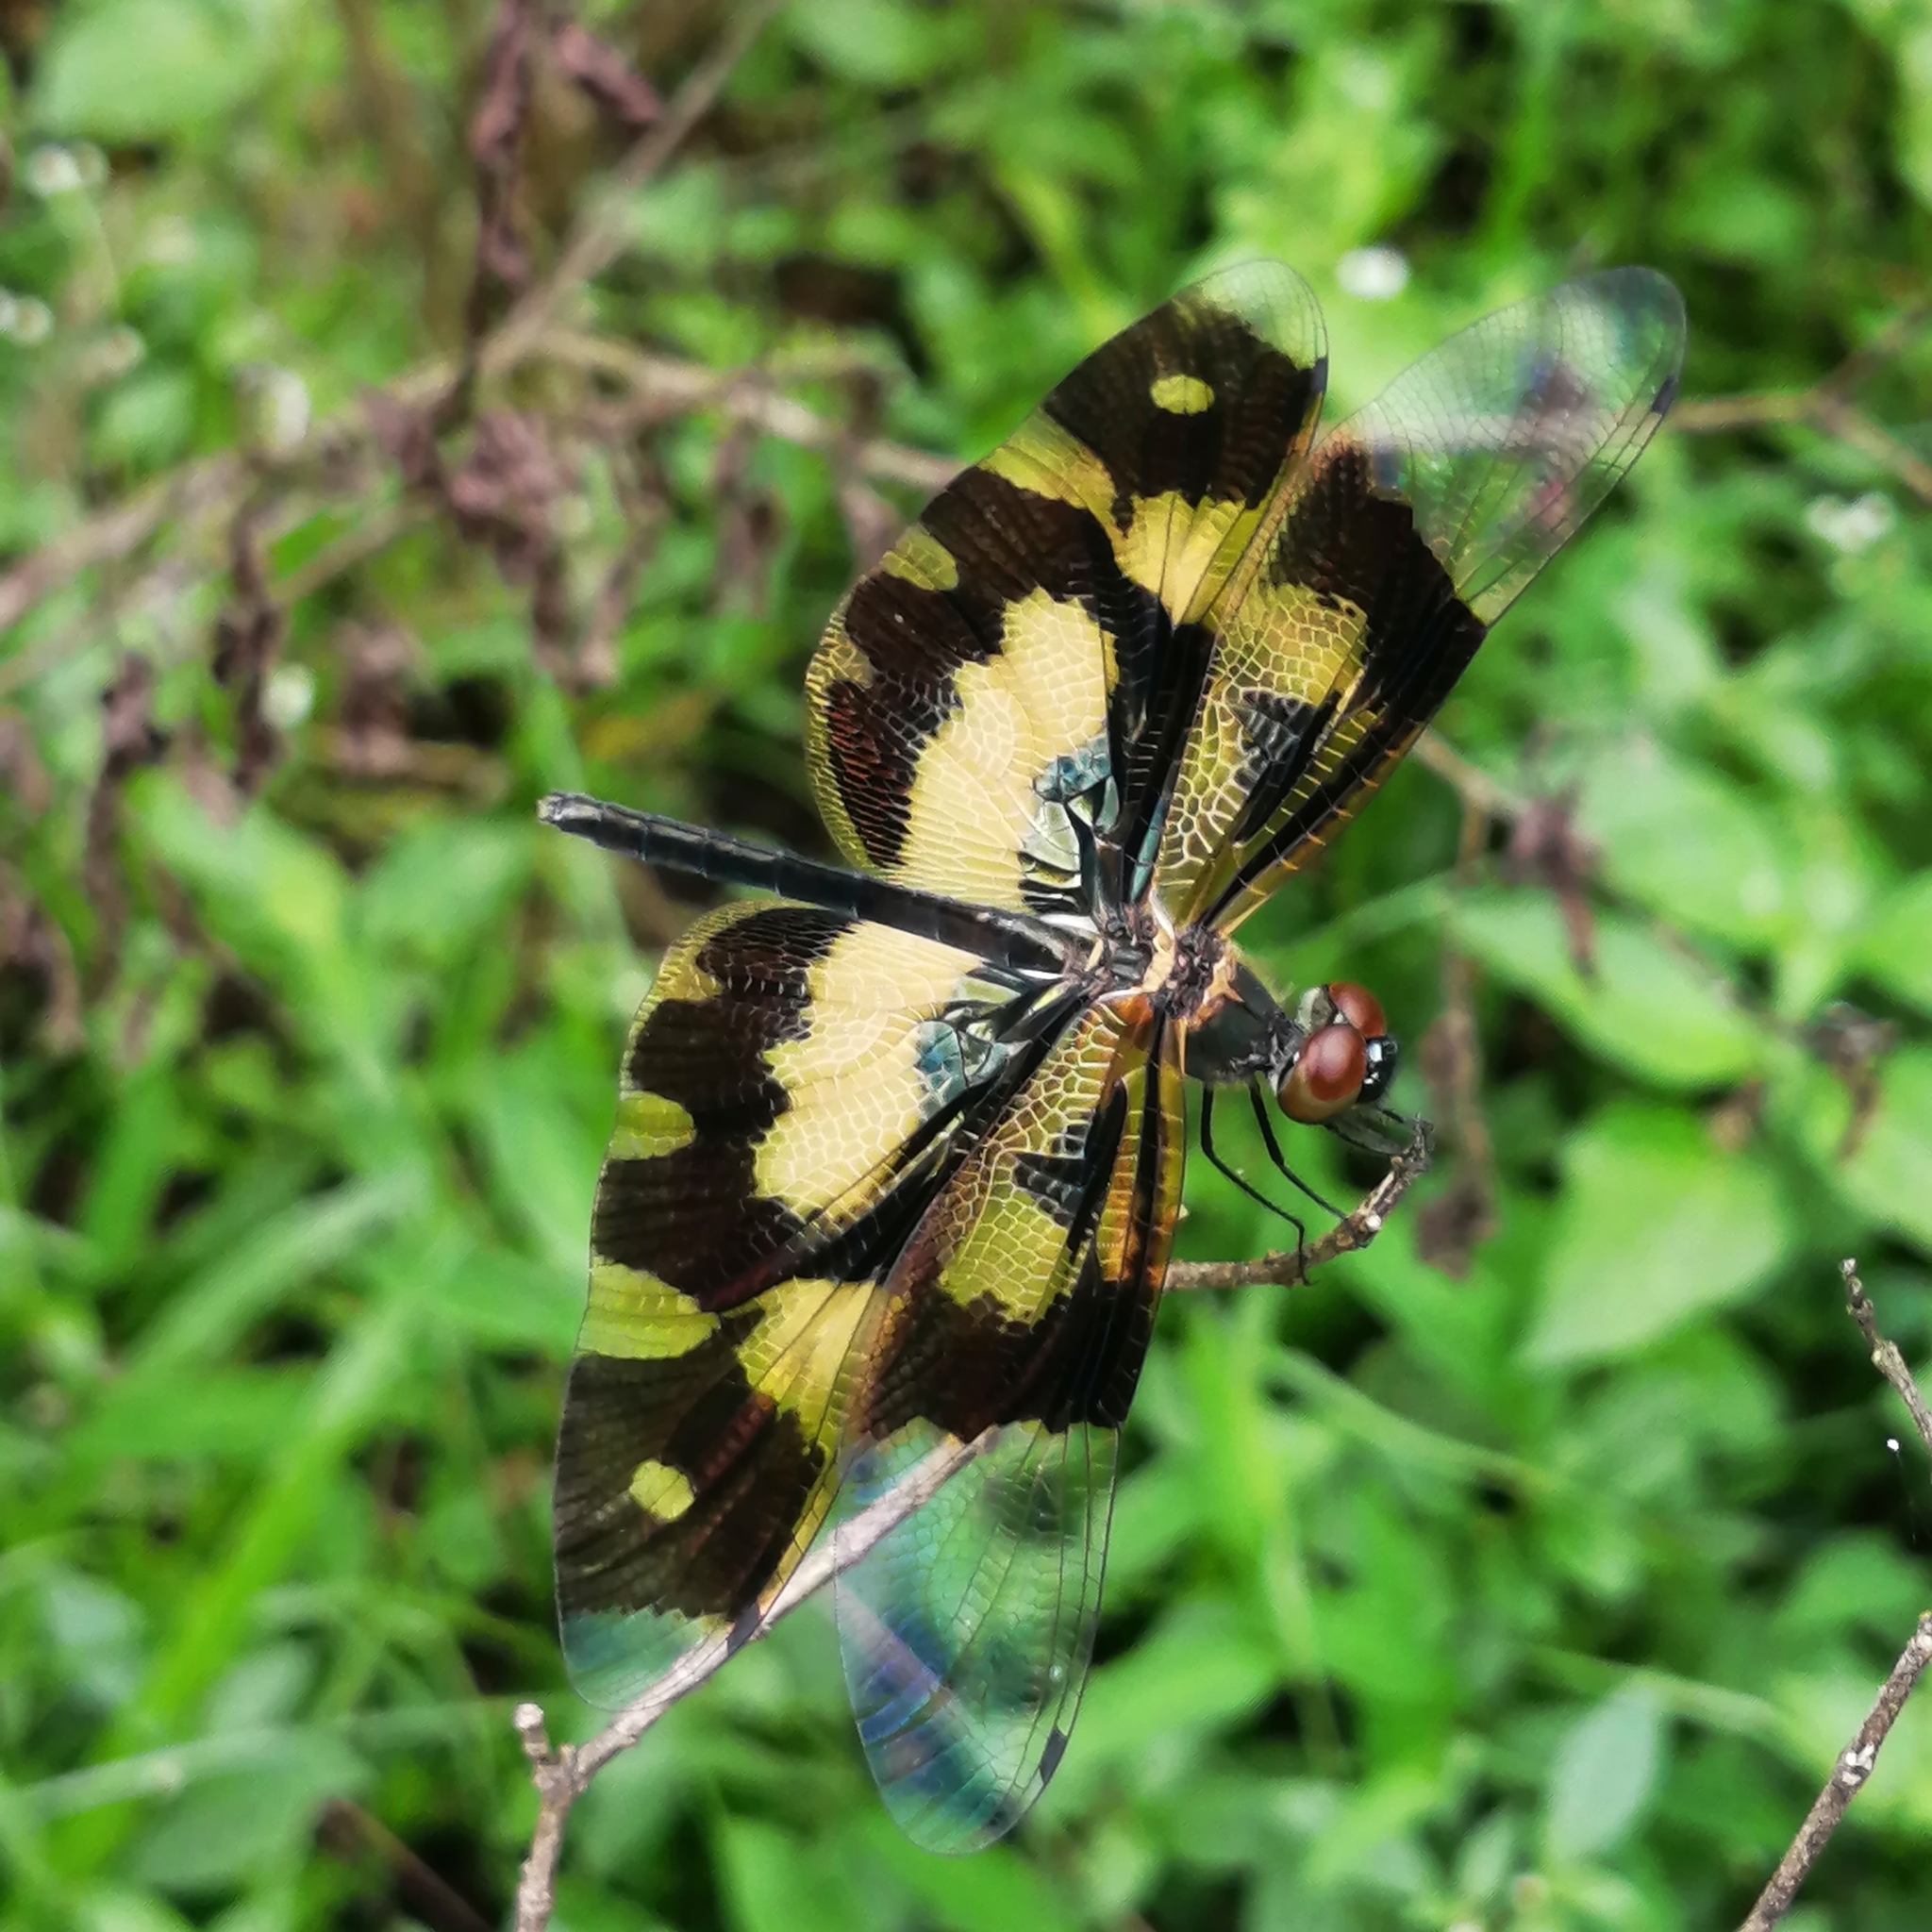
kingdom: Animalia
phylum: Arthropoda
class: Insecta
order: Odonata
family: Libellulidae
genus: Rhyothemis
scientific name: Rhyothemis variegata
